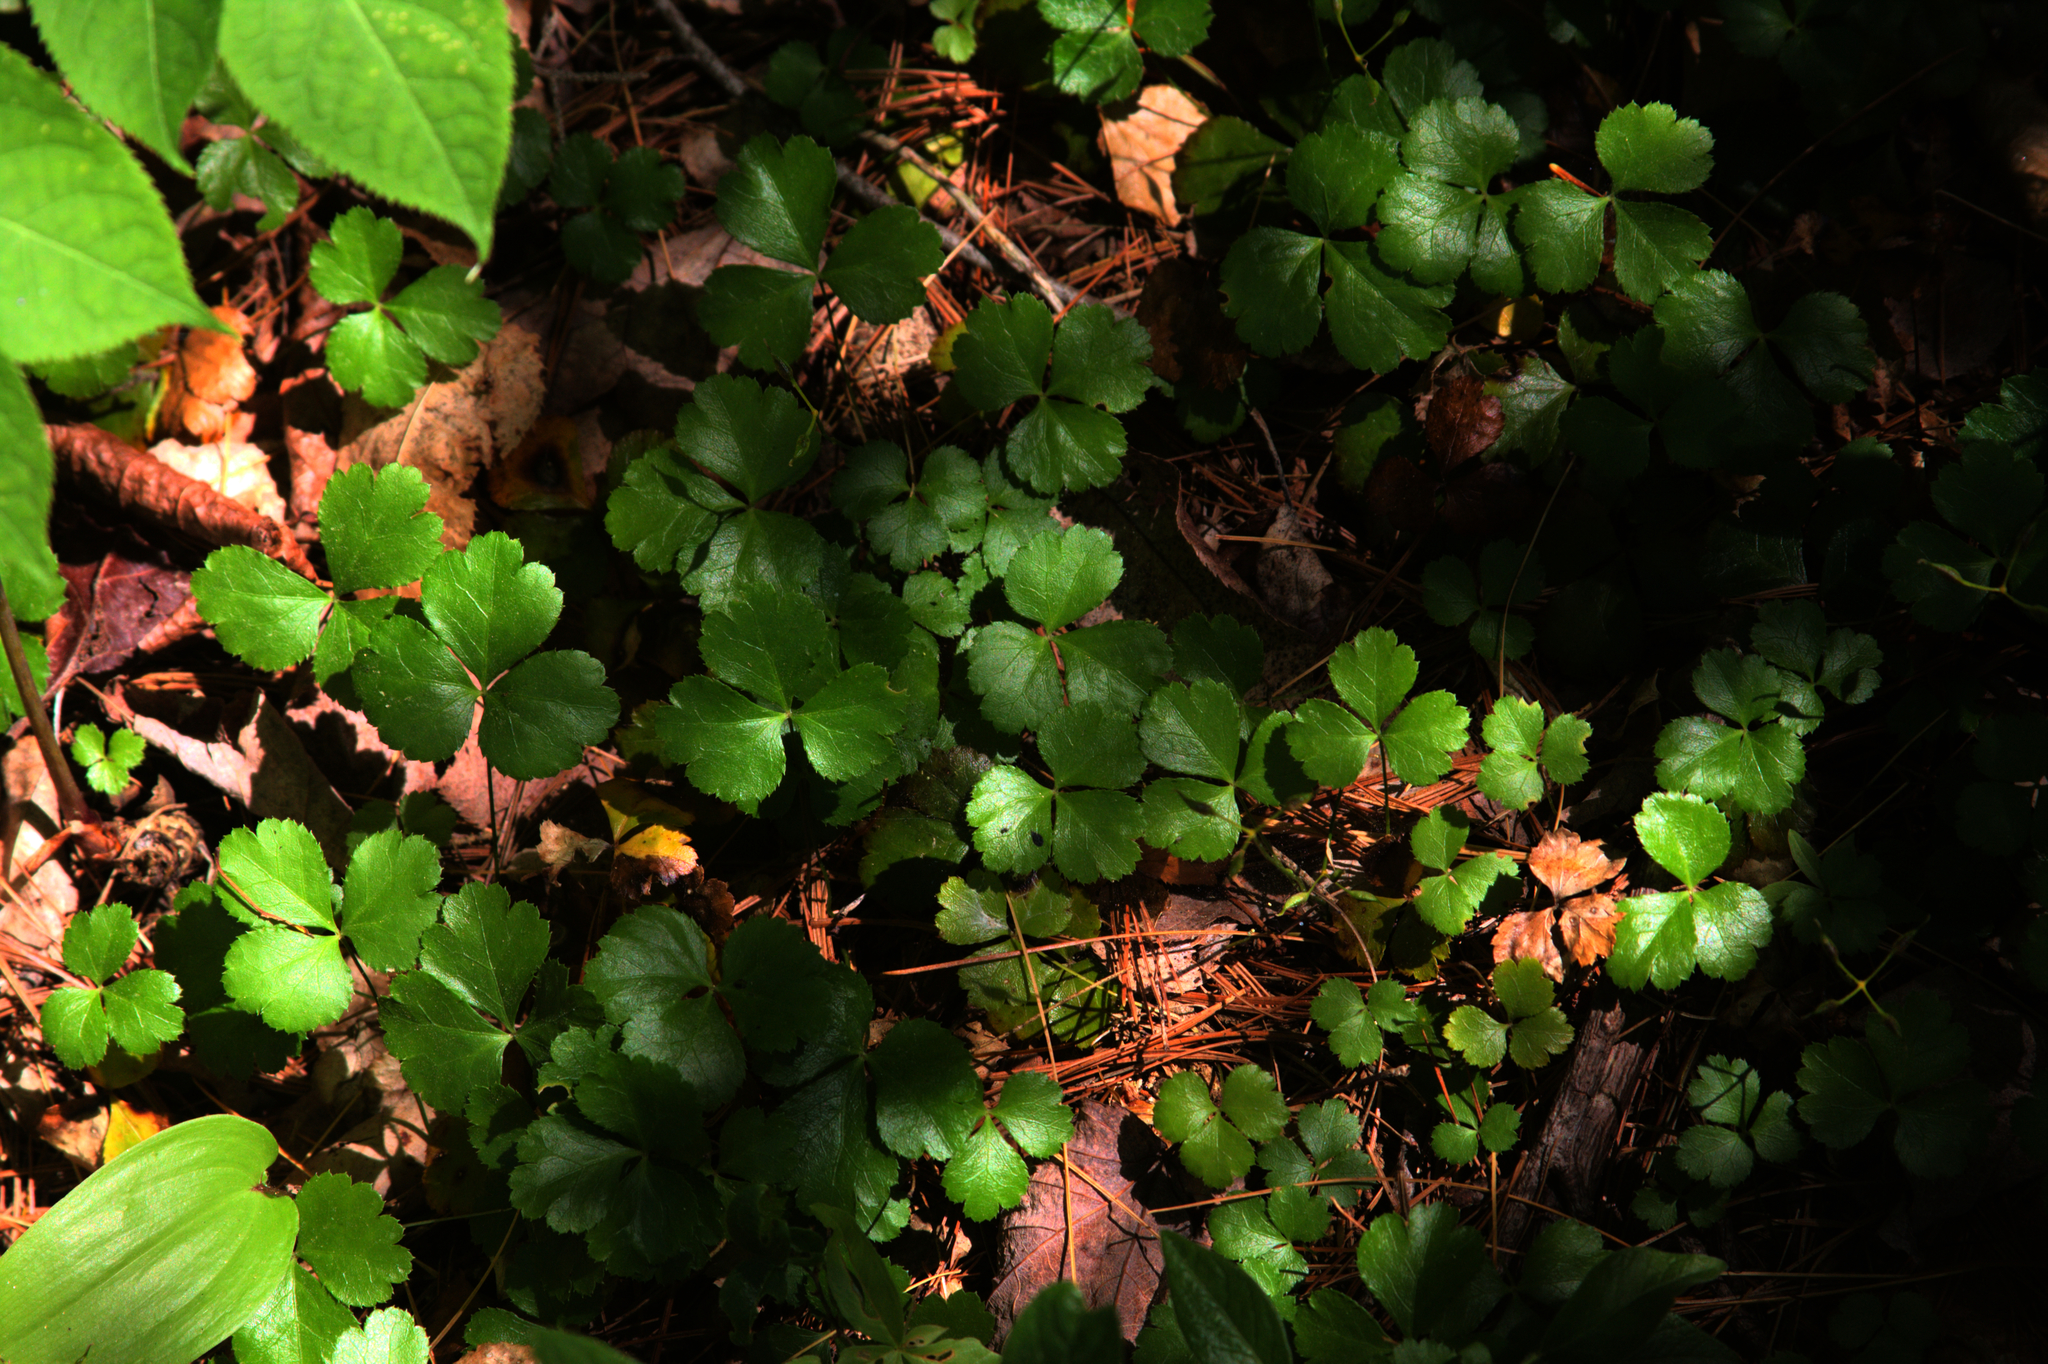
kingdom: Plantae
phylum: Tracheophyta
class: Magnoliopsida
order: Ranunculales
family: Ranunculaceae
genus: Coptis
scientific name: Coptis trifolia
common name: Canker-root
